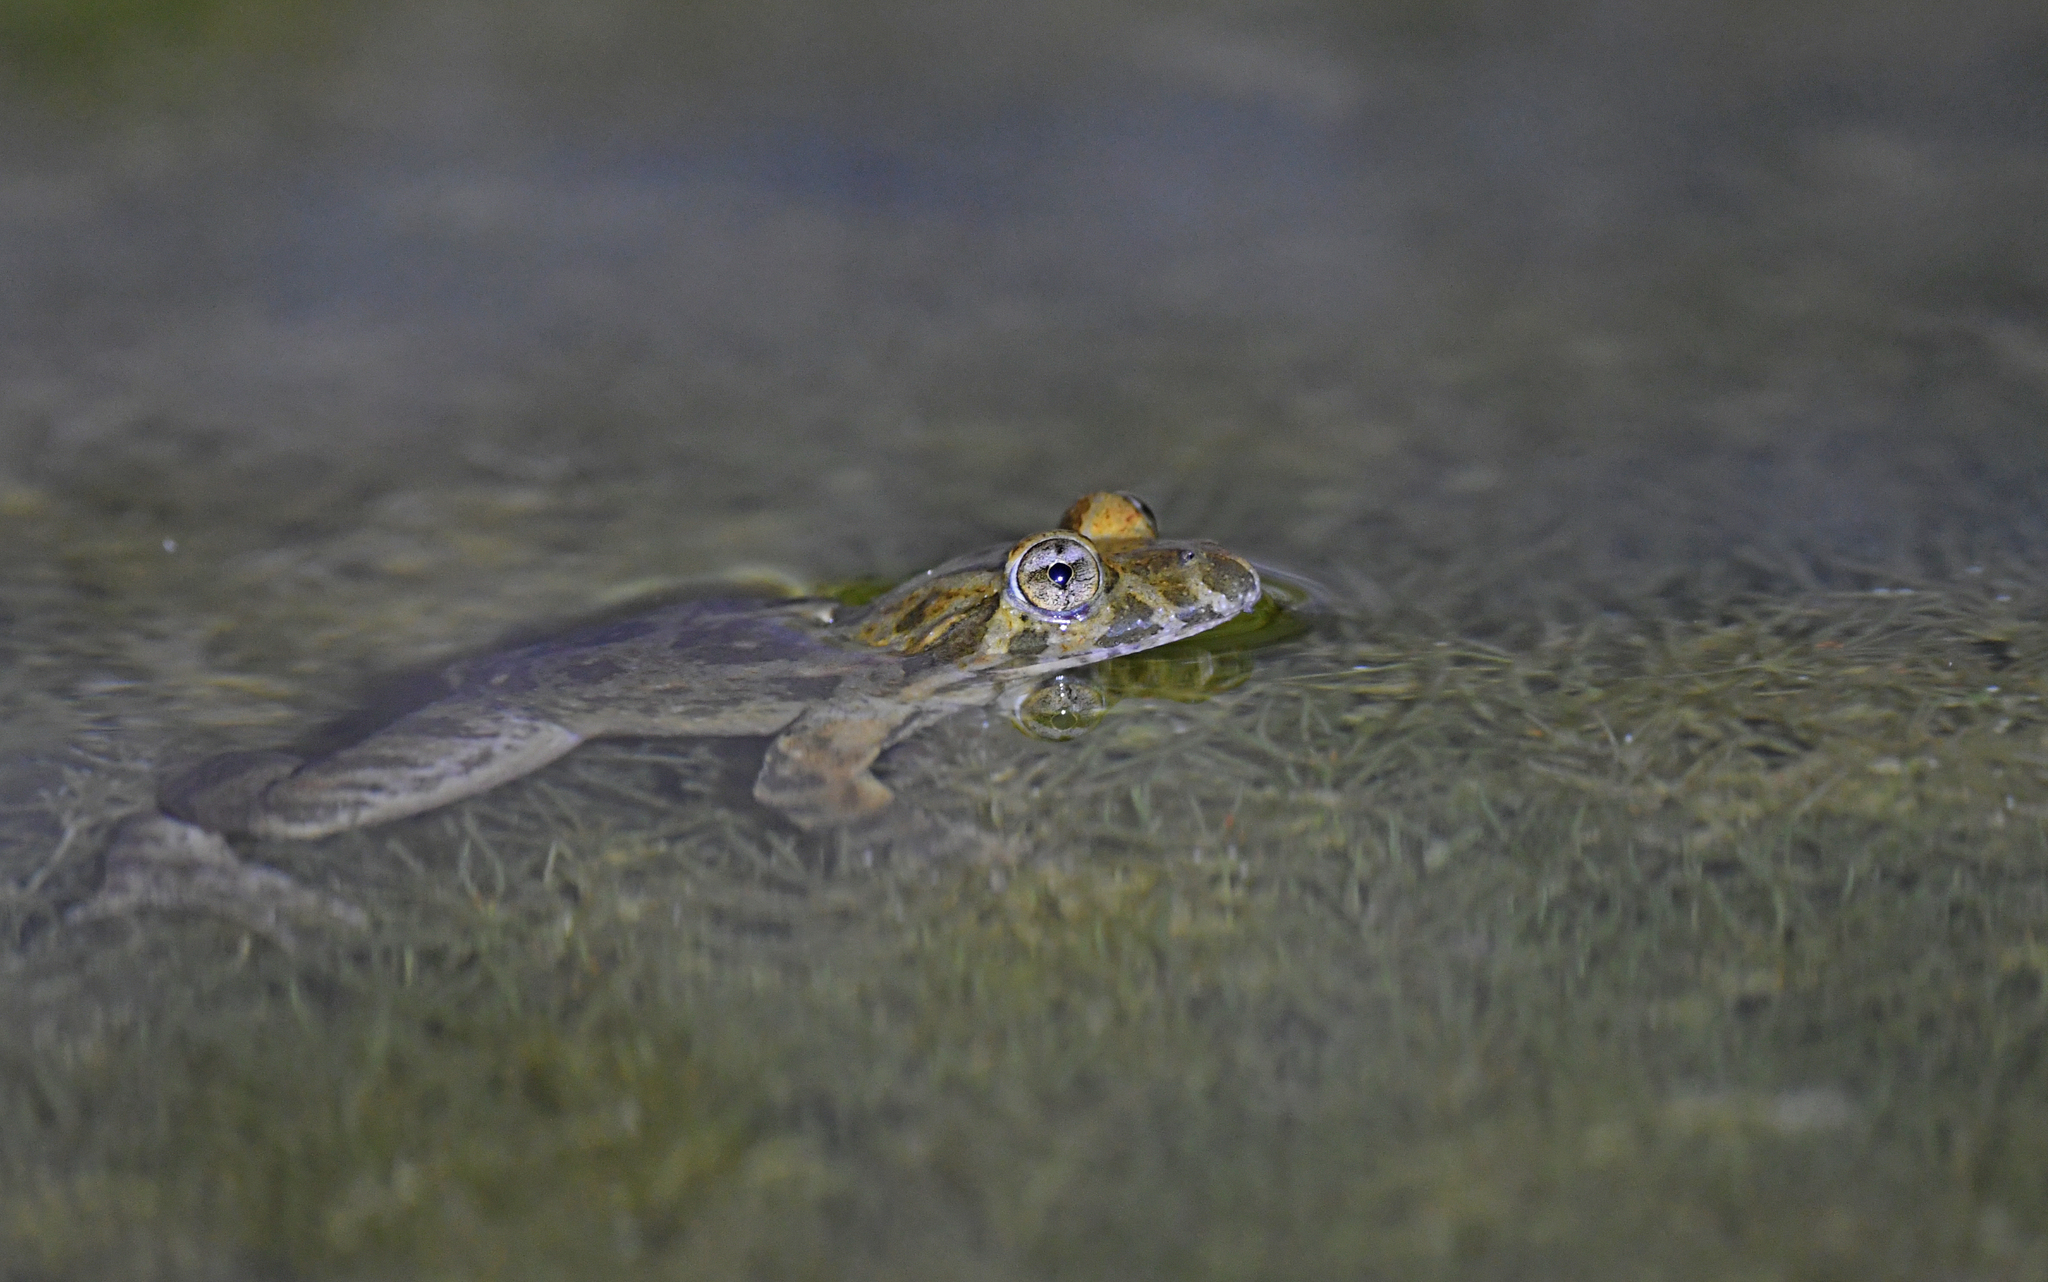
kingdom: Animalia
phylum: Chordata
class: Amphibia
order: Anura
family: Alytidae
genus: Discoglossus
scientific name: Discoglossus sardus
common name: Sardinia painted frog
